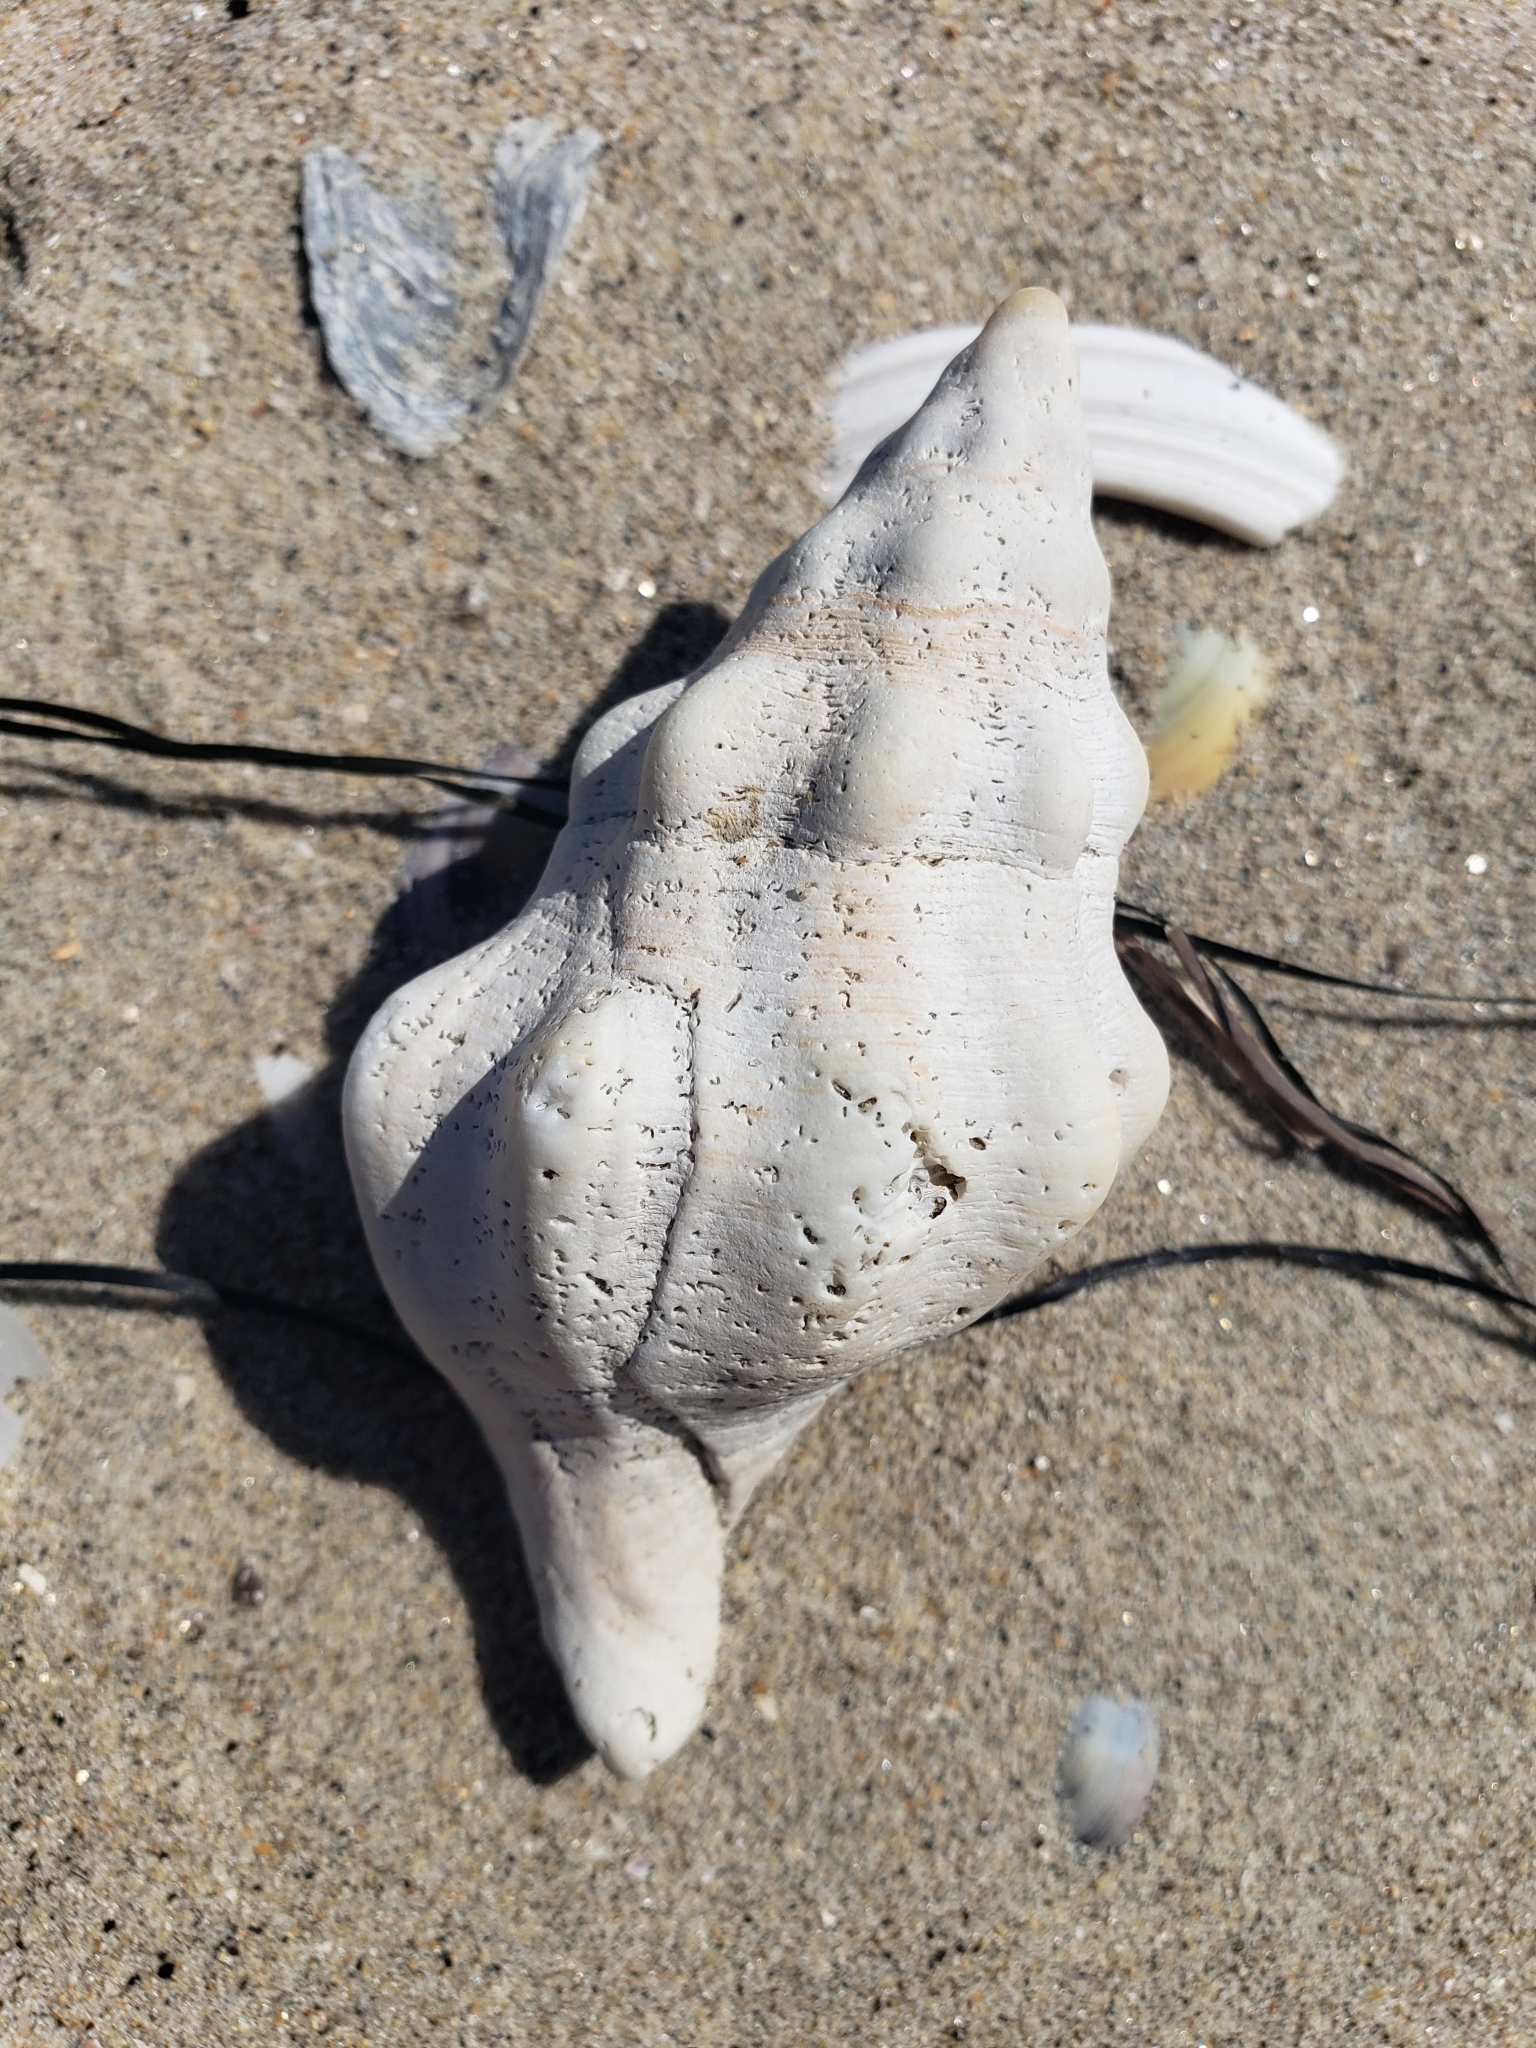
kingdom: Animalia
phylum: Mollusca
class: Gastropoda
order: Neogastropoda
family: Austrosiphonidae
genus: Kelletia
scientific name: Kelletia kelletii
